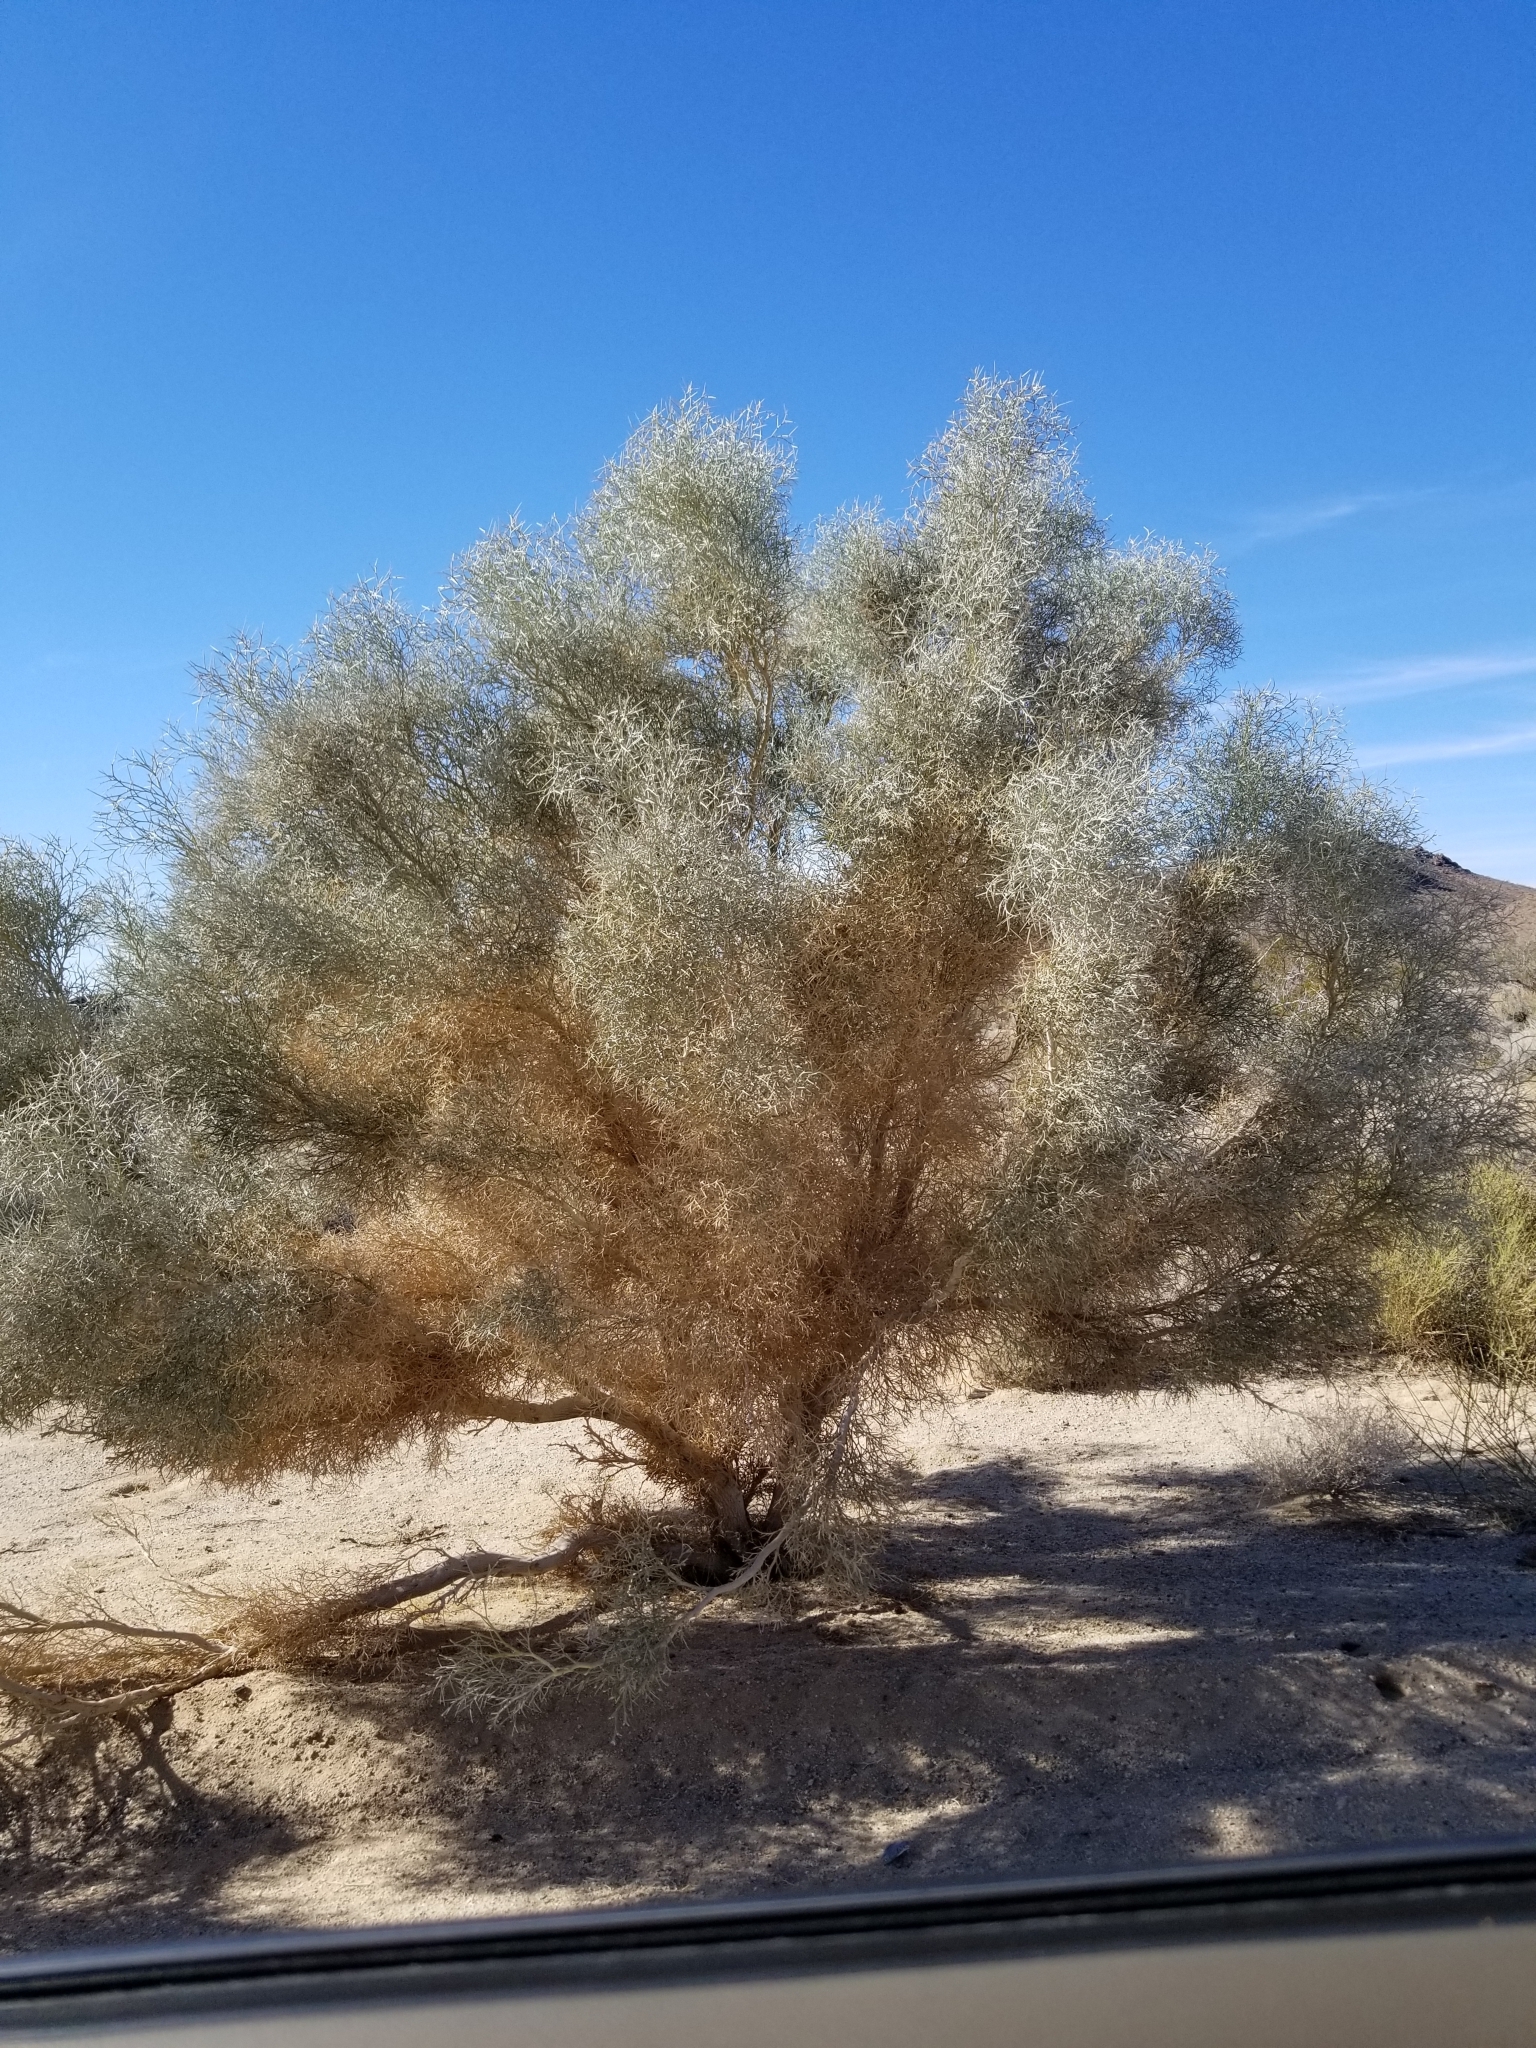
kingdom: Plantae
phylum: Tracheophyta
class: Magnoliopsida
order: Fabales
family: Fabaceae
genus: Psorothamnus
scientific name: Psorothamnus spinosus
